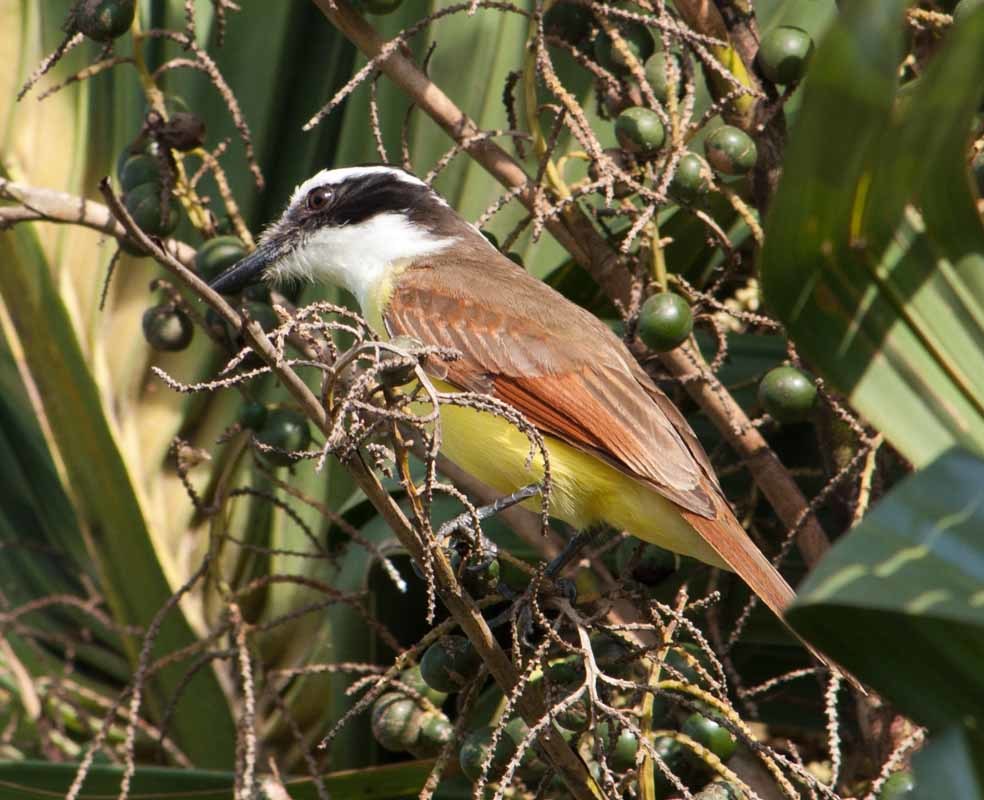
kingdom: Animalia
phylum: Chordata
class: Aves
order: Passeriformes
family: Tyrannidae
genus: Pitangus
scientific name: Pitangus sulphuratus
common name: Great kiskadee
